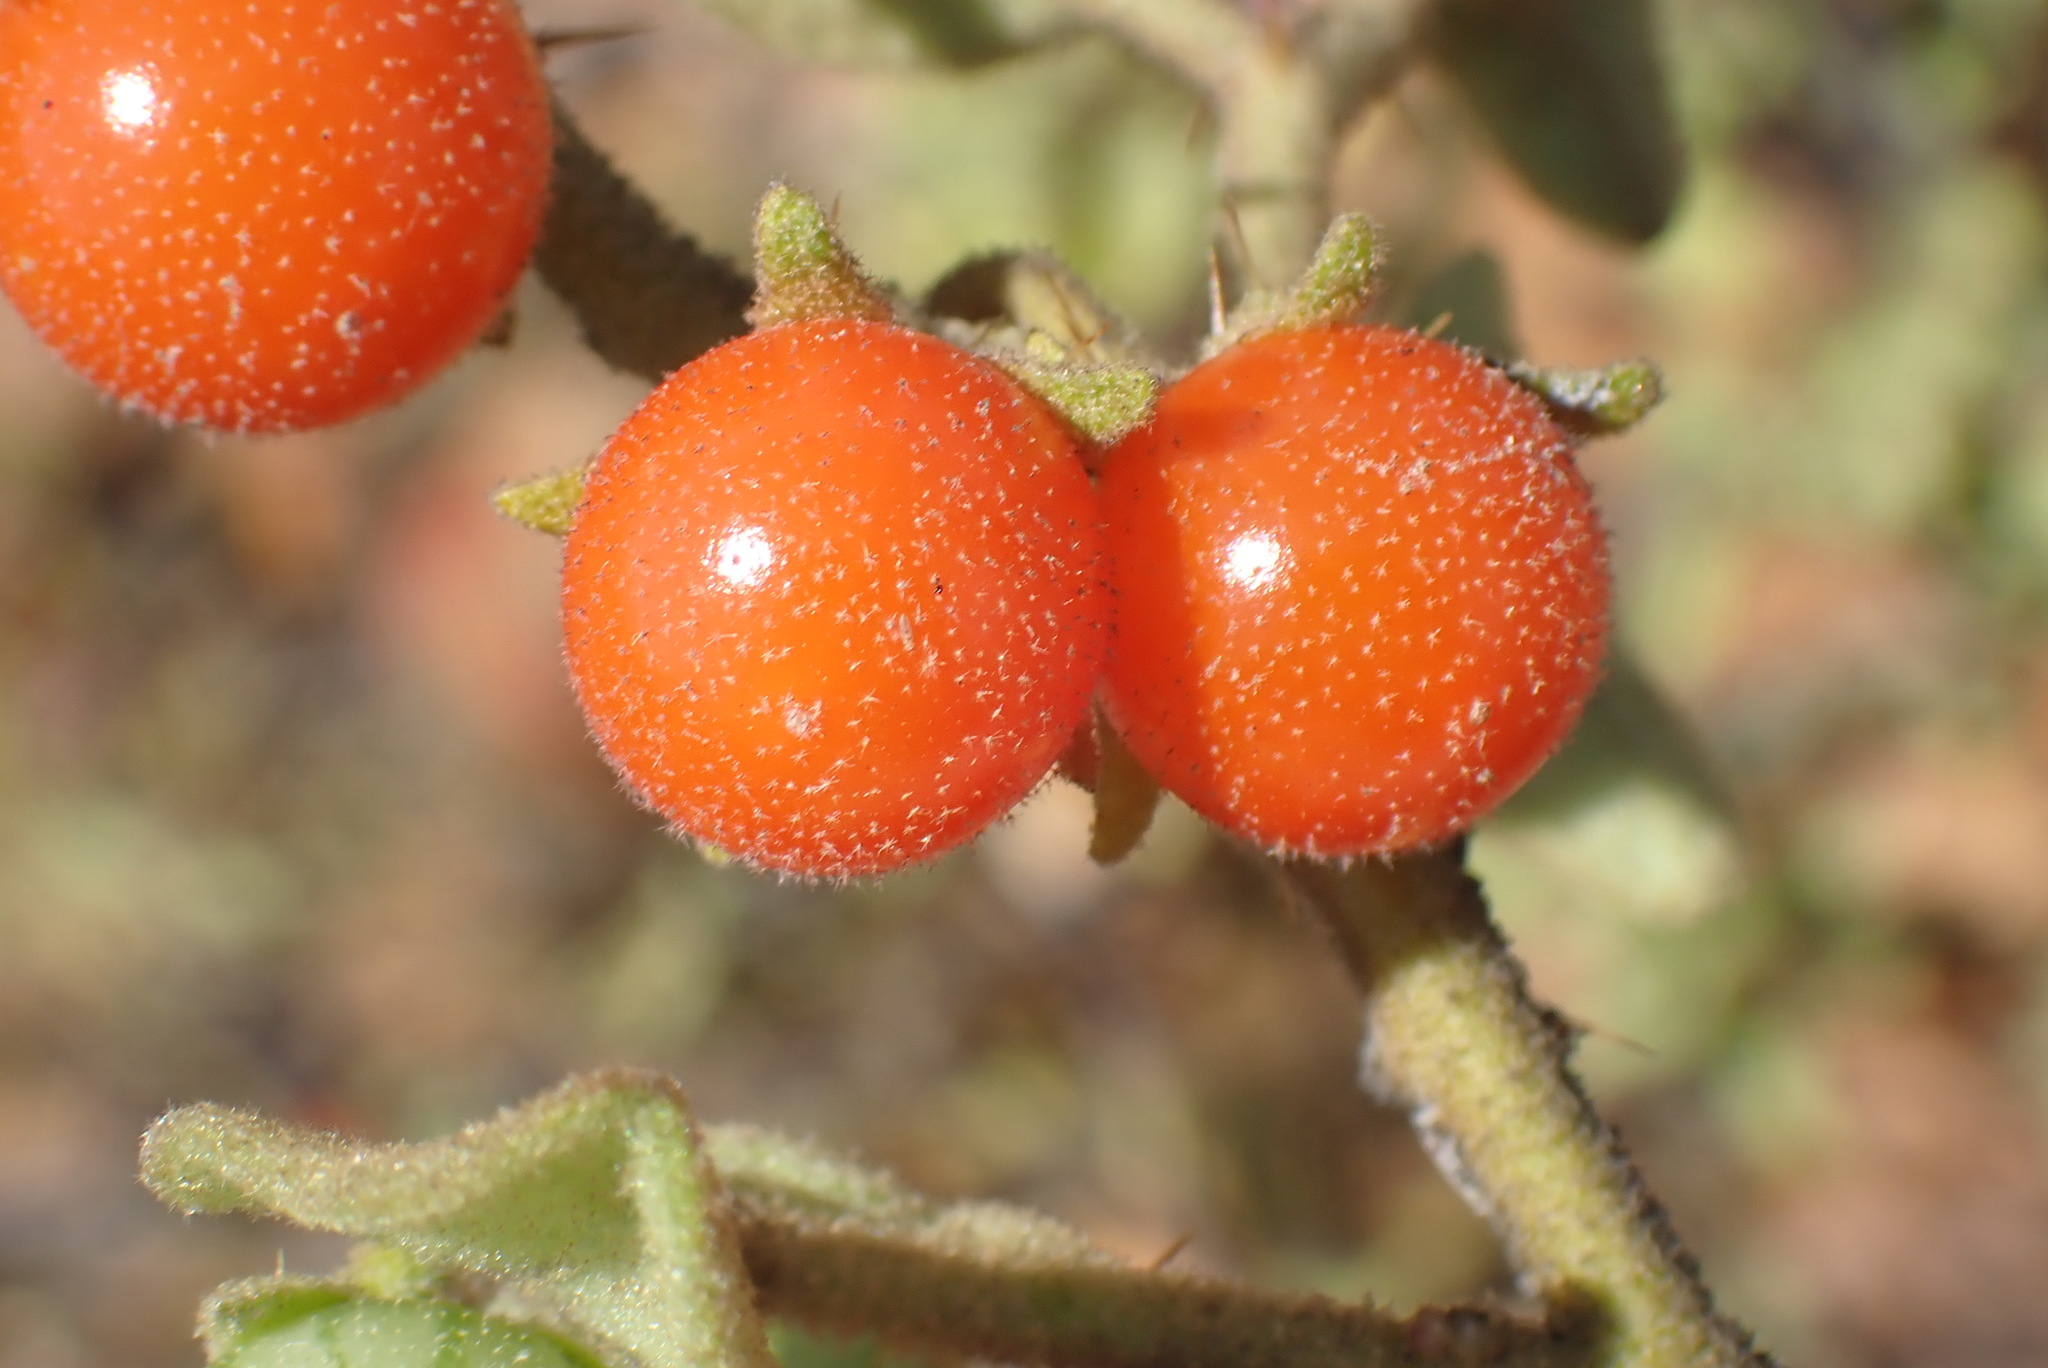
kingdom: Plantae
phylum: Tracheophyta
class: Magnoliopsida
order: Solanales
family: Solanaceae
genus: Solanum
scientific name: Solanum tomentosum
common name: Wild aubergine
